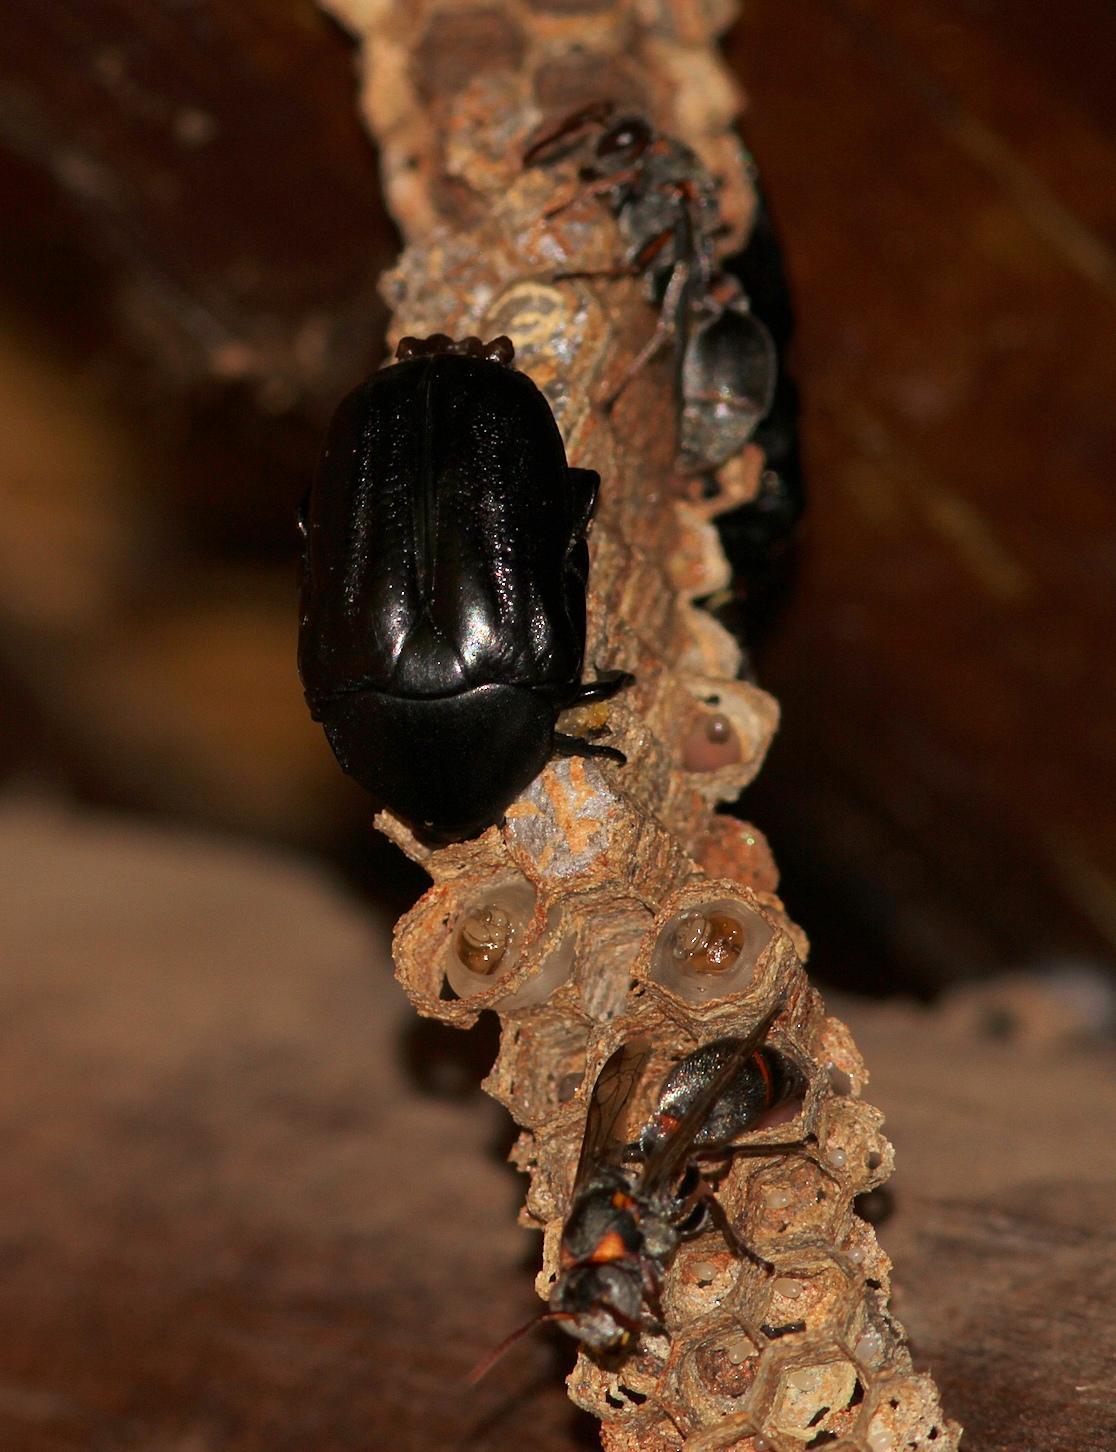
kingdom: Animalia
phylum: Arthropoda
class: Insecta
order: Coleoptera
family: Scarabaeidae
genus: Oplostomus
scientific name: Oplostomus fuligineus
